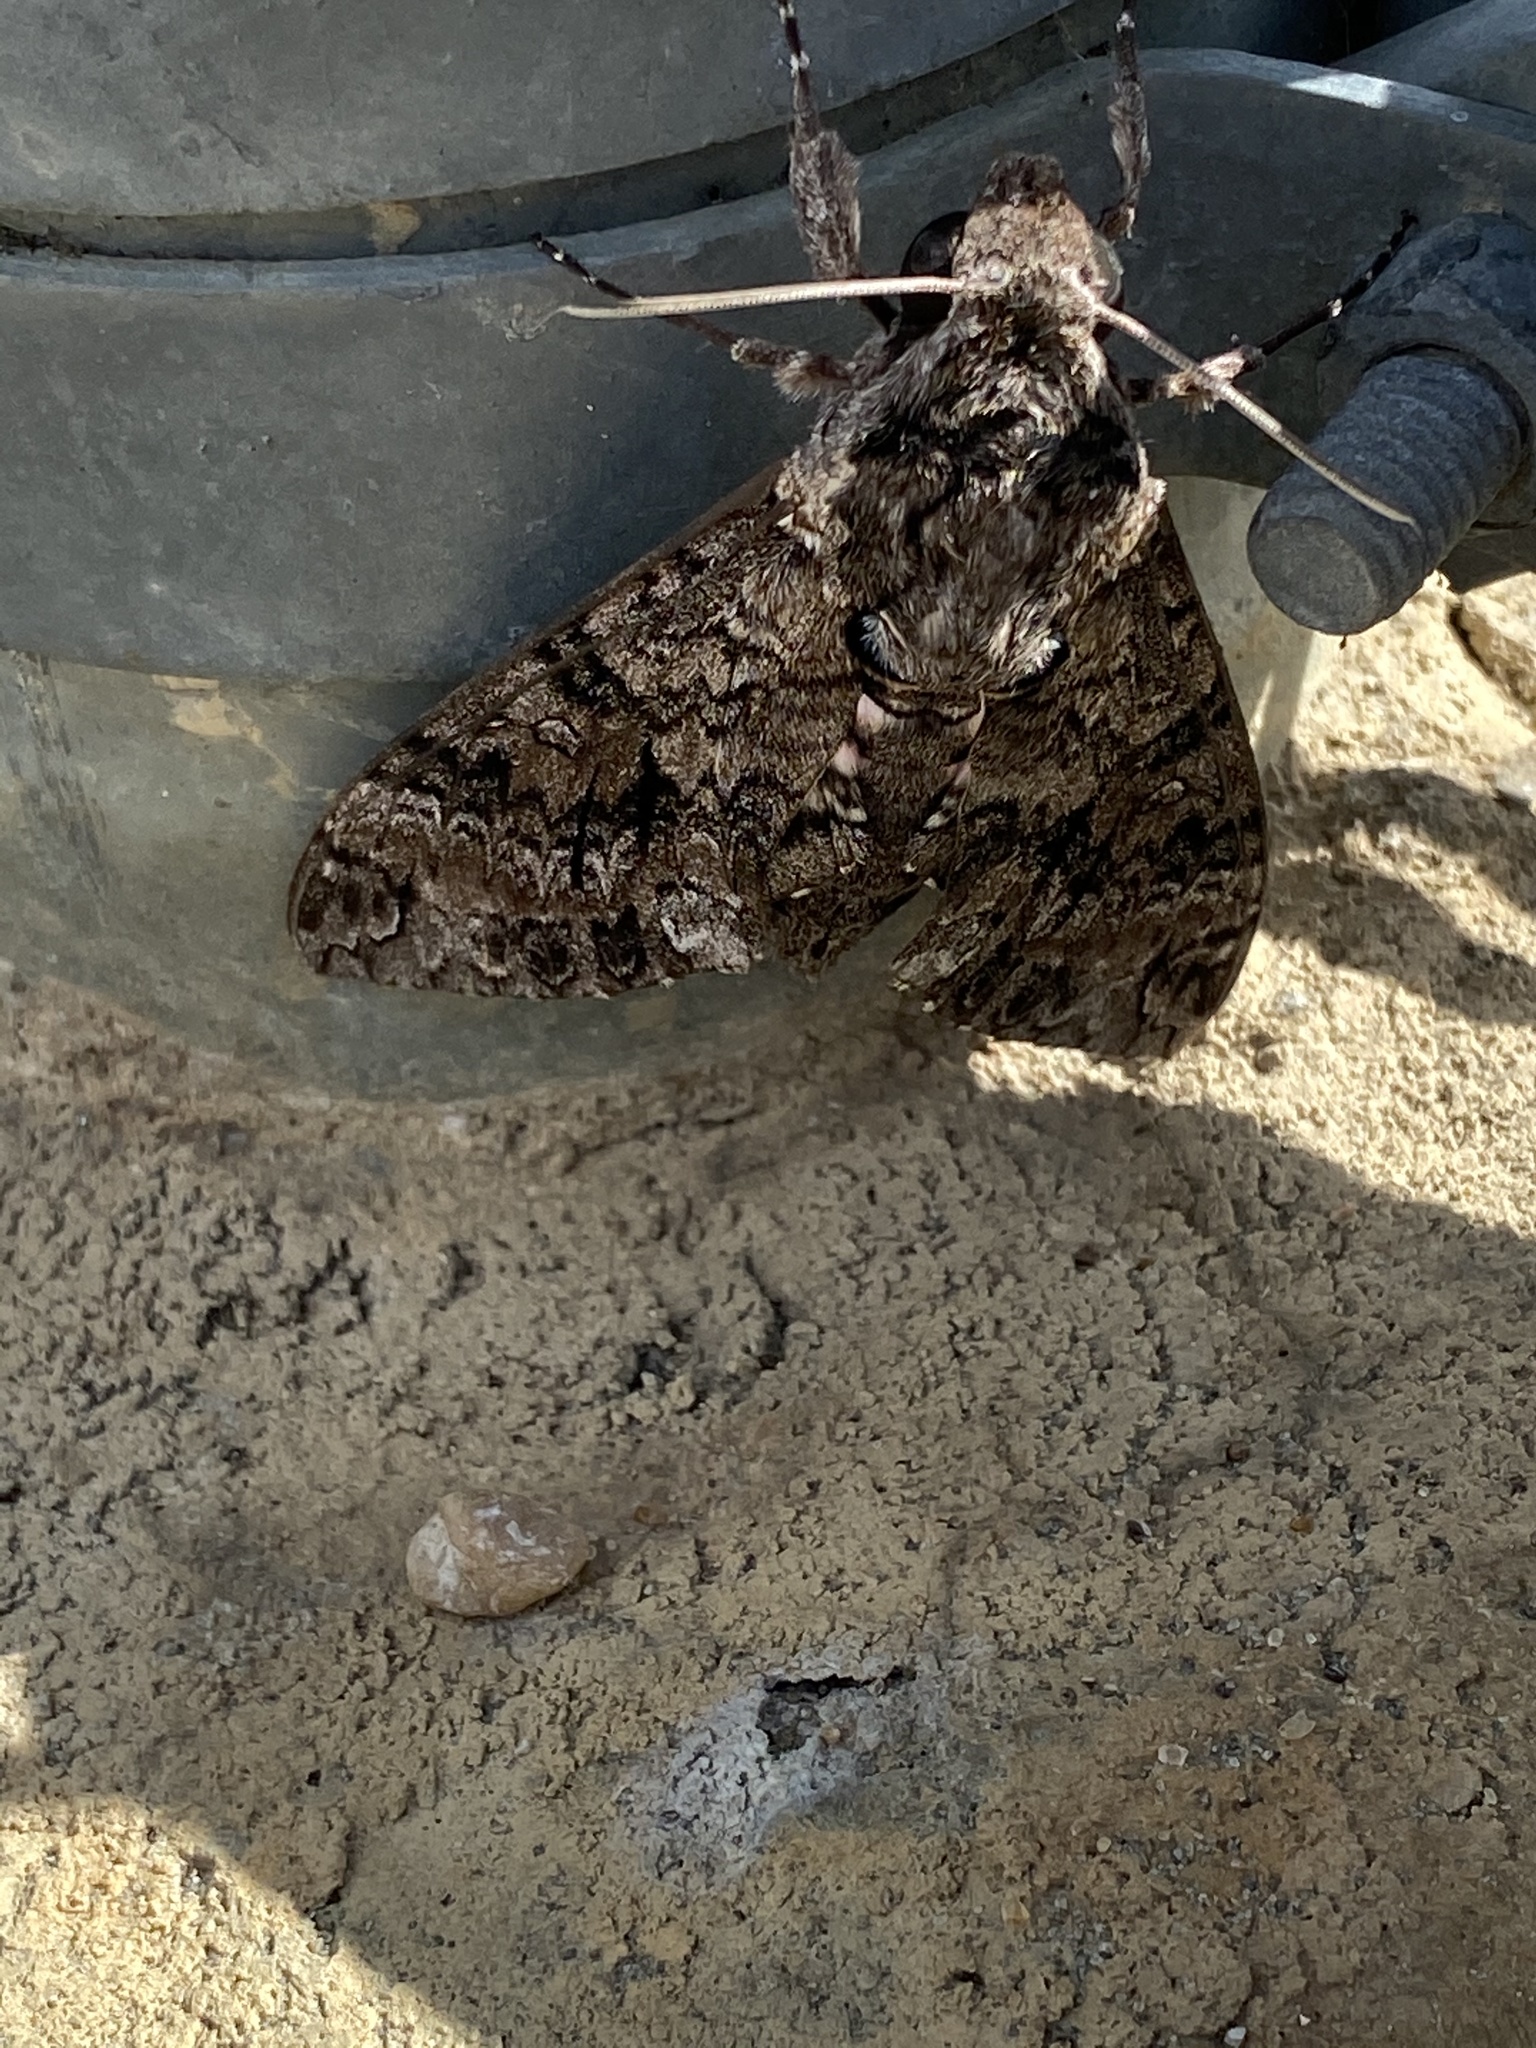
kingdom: Animalia
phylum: Arthropoda
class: Insecta
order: Lepidoptera
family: Sphingidae
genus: Agrius
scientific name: Agrius cingulata
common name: Pink-spotted hawkmoth
